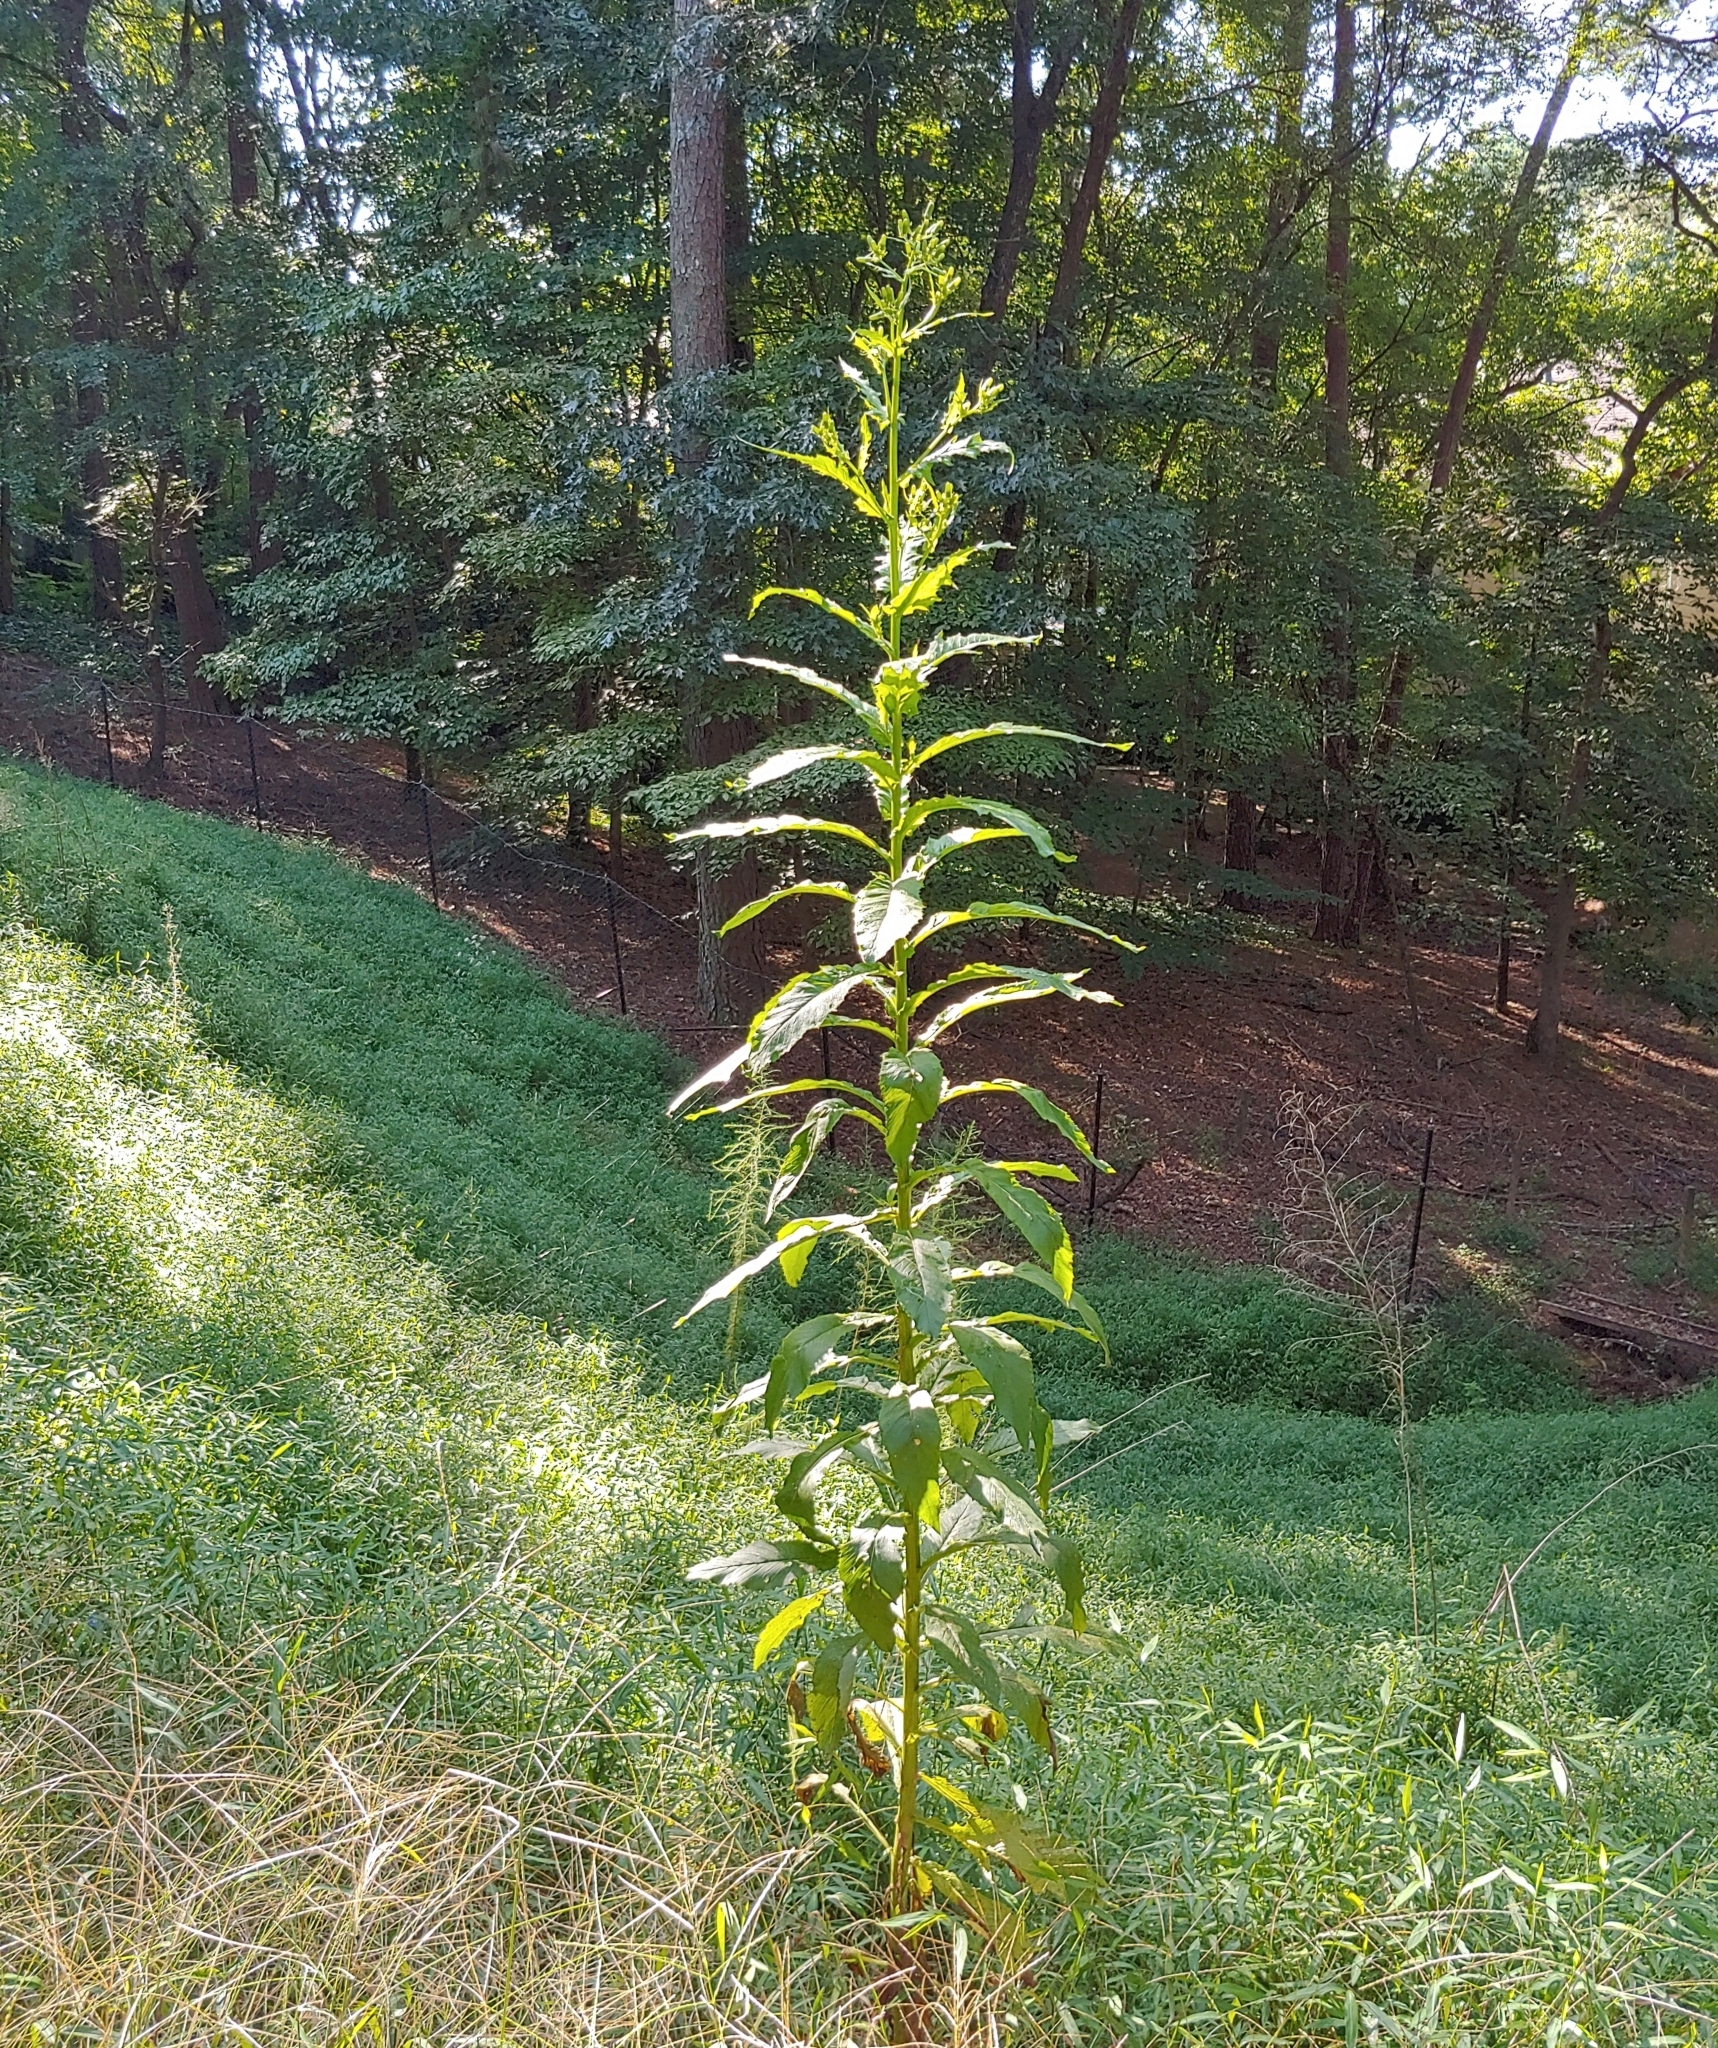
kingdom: Plantae
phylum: Tracheophyta
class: Magnoliopsida
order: Asterales
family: Asteraceae
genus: Erechtites
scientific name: Erechtites hieraciifolius
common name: American burnweed
